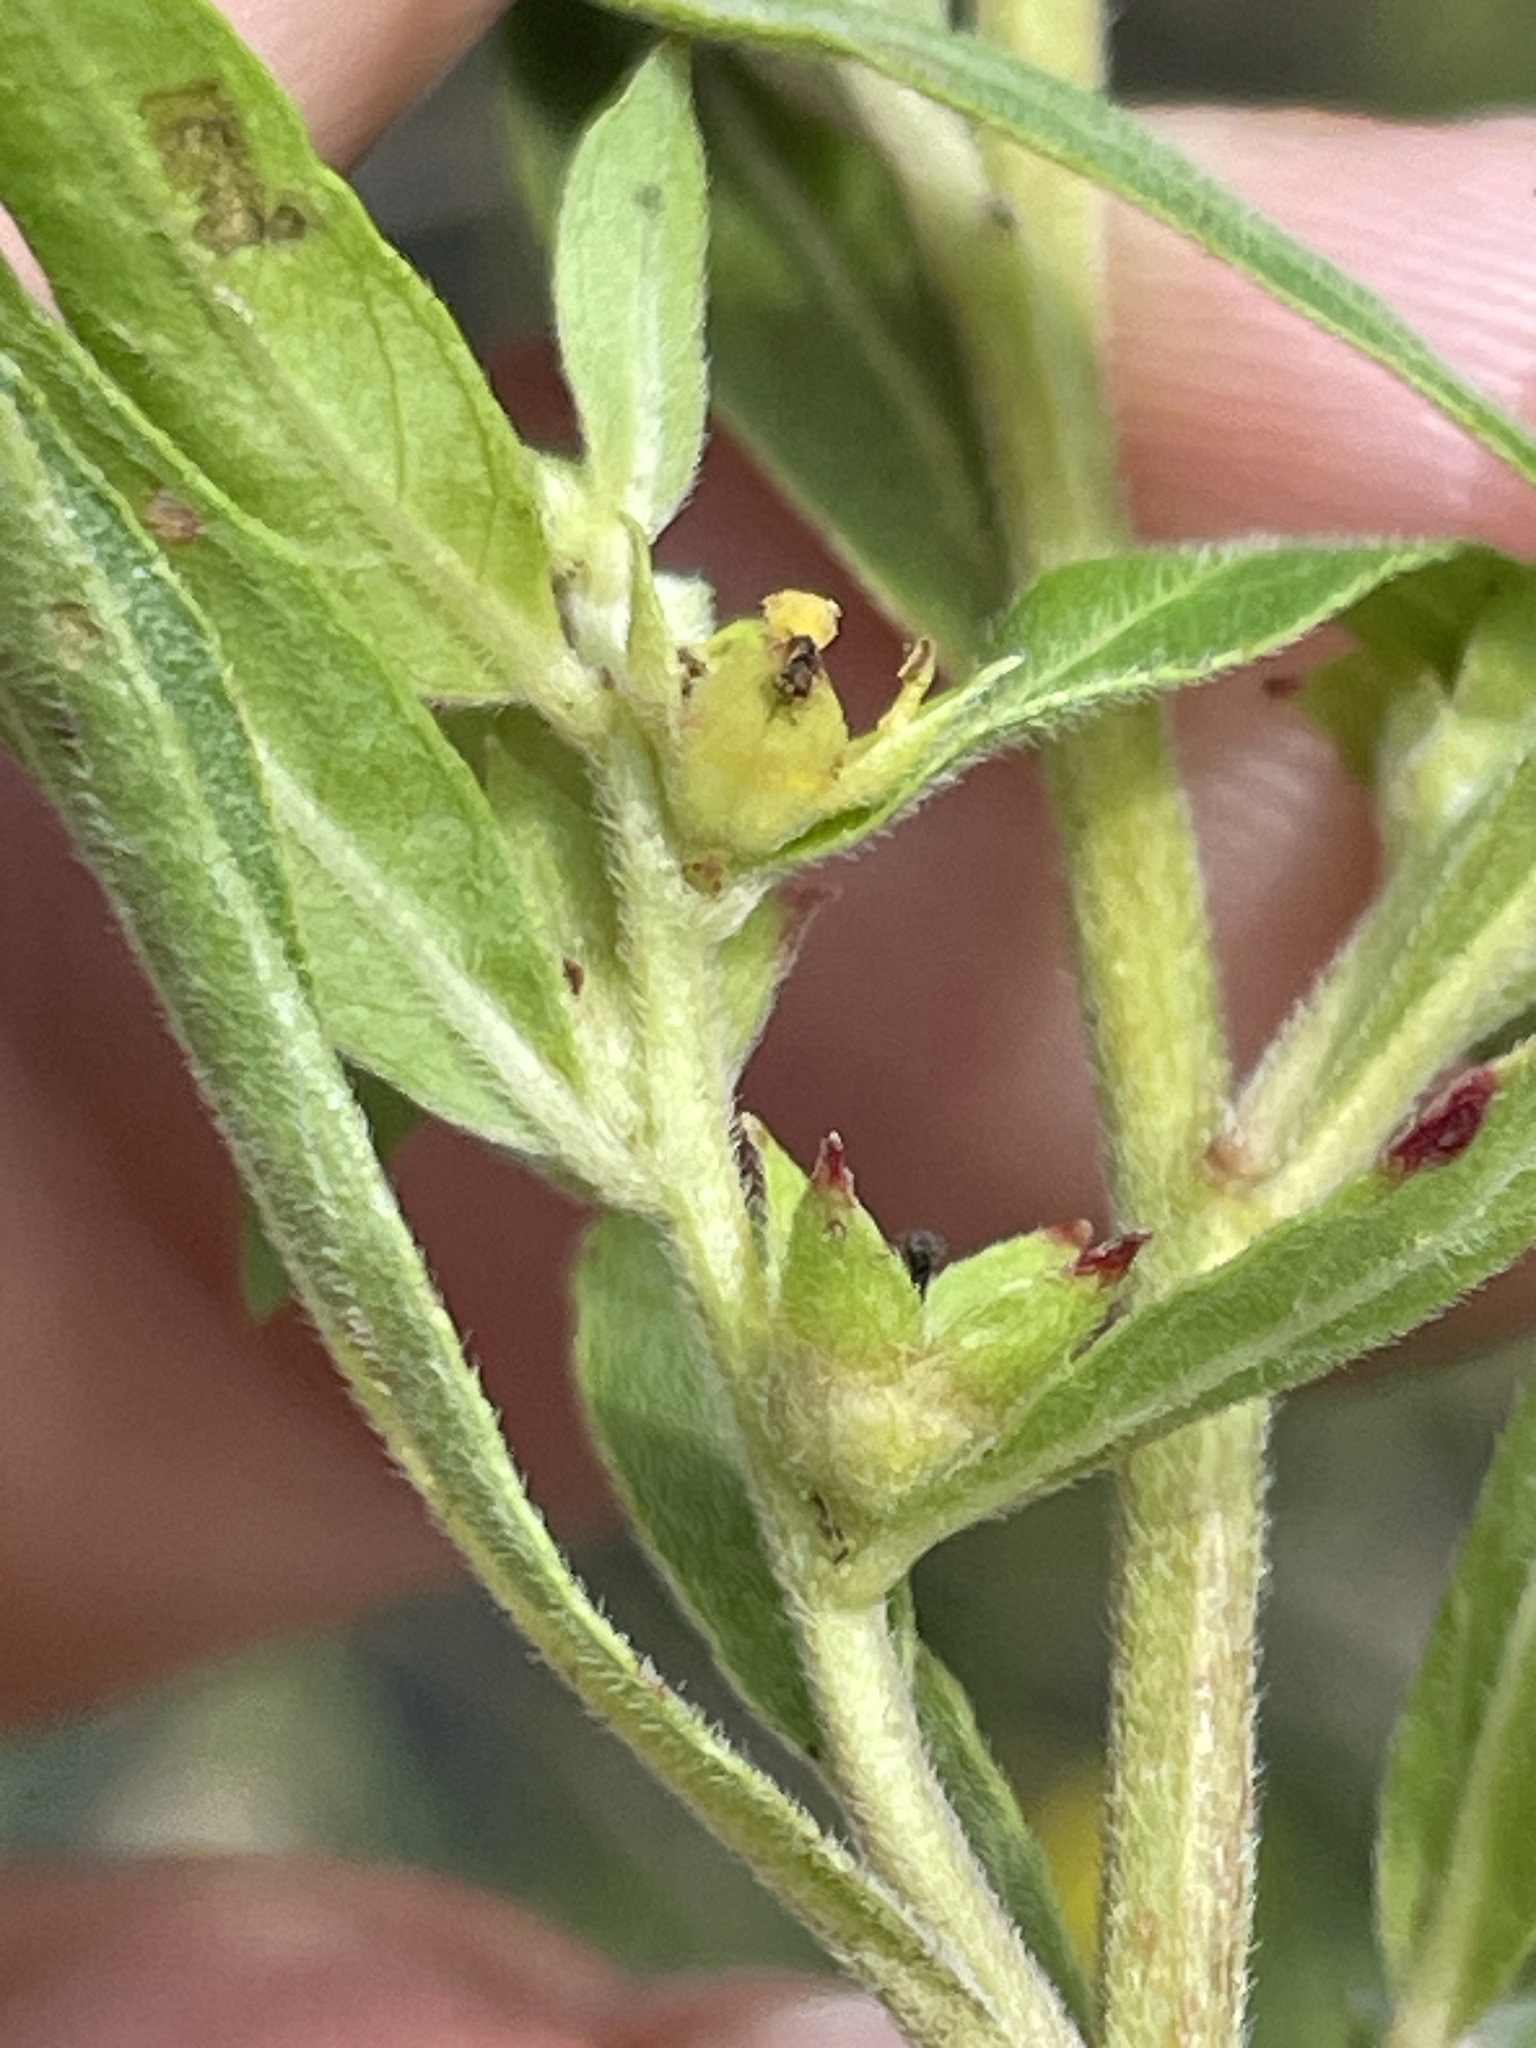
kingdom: Plantae
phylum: Tracheophyta
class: Magnoliopsida
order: Myrtales
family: Onagraceae
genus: Ludwigia
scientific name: Ludwigia sphaerocarpa
